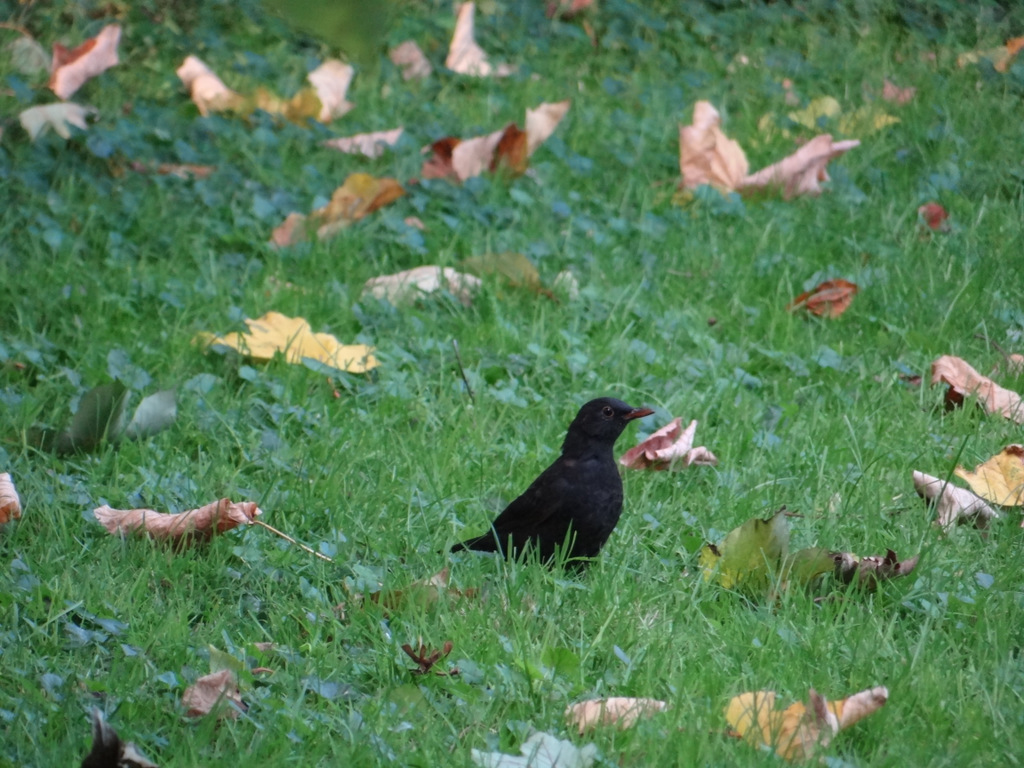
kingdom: Animalia
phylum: Chordata
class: Aves
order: Passeriformes
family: Turdidae
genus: Turdus
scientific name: Turdus merula
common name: Common blackbird
